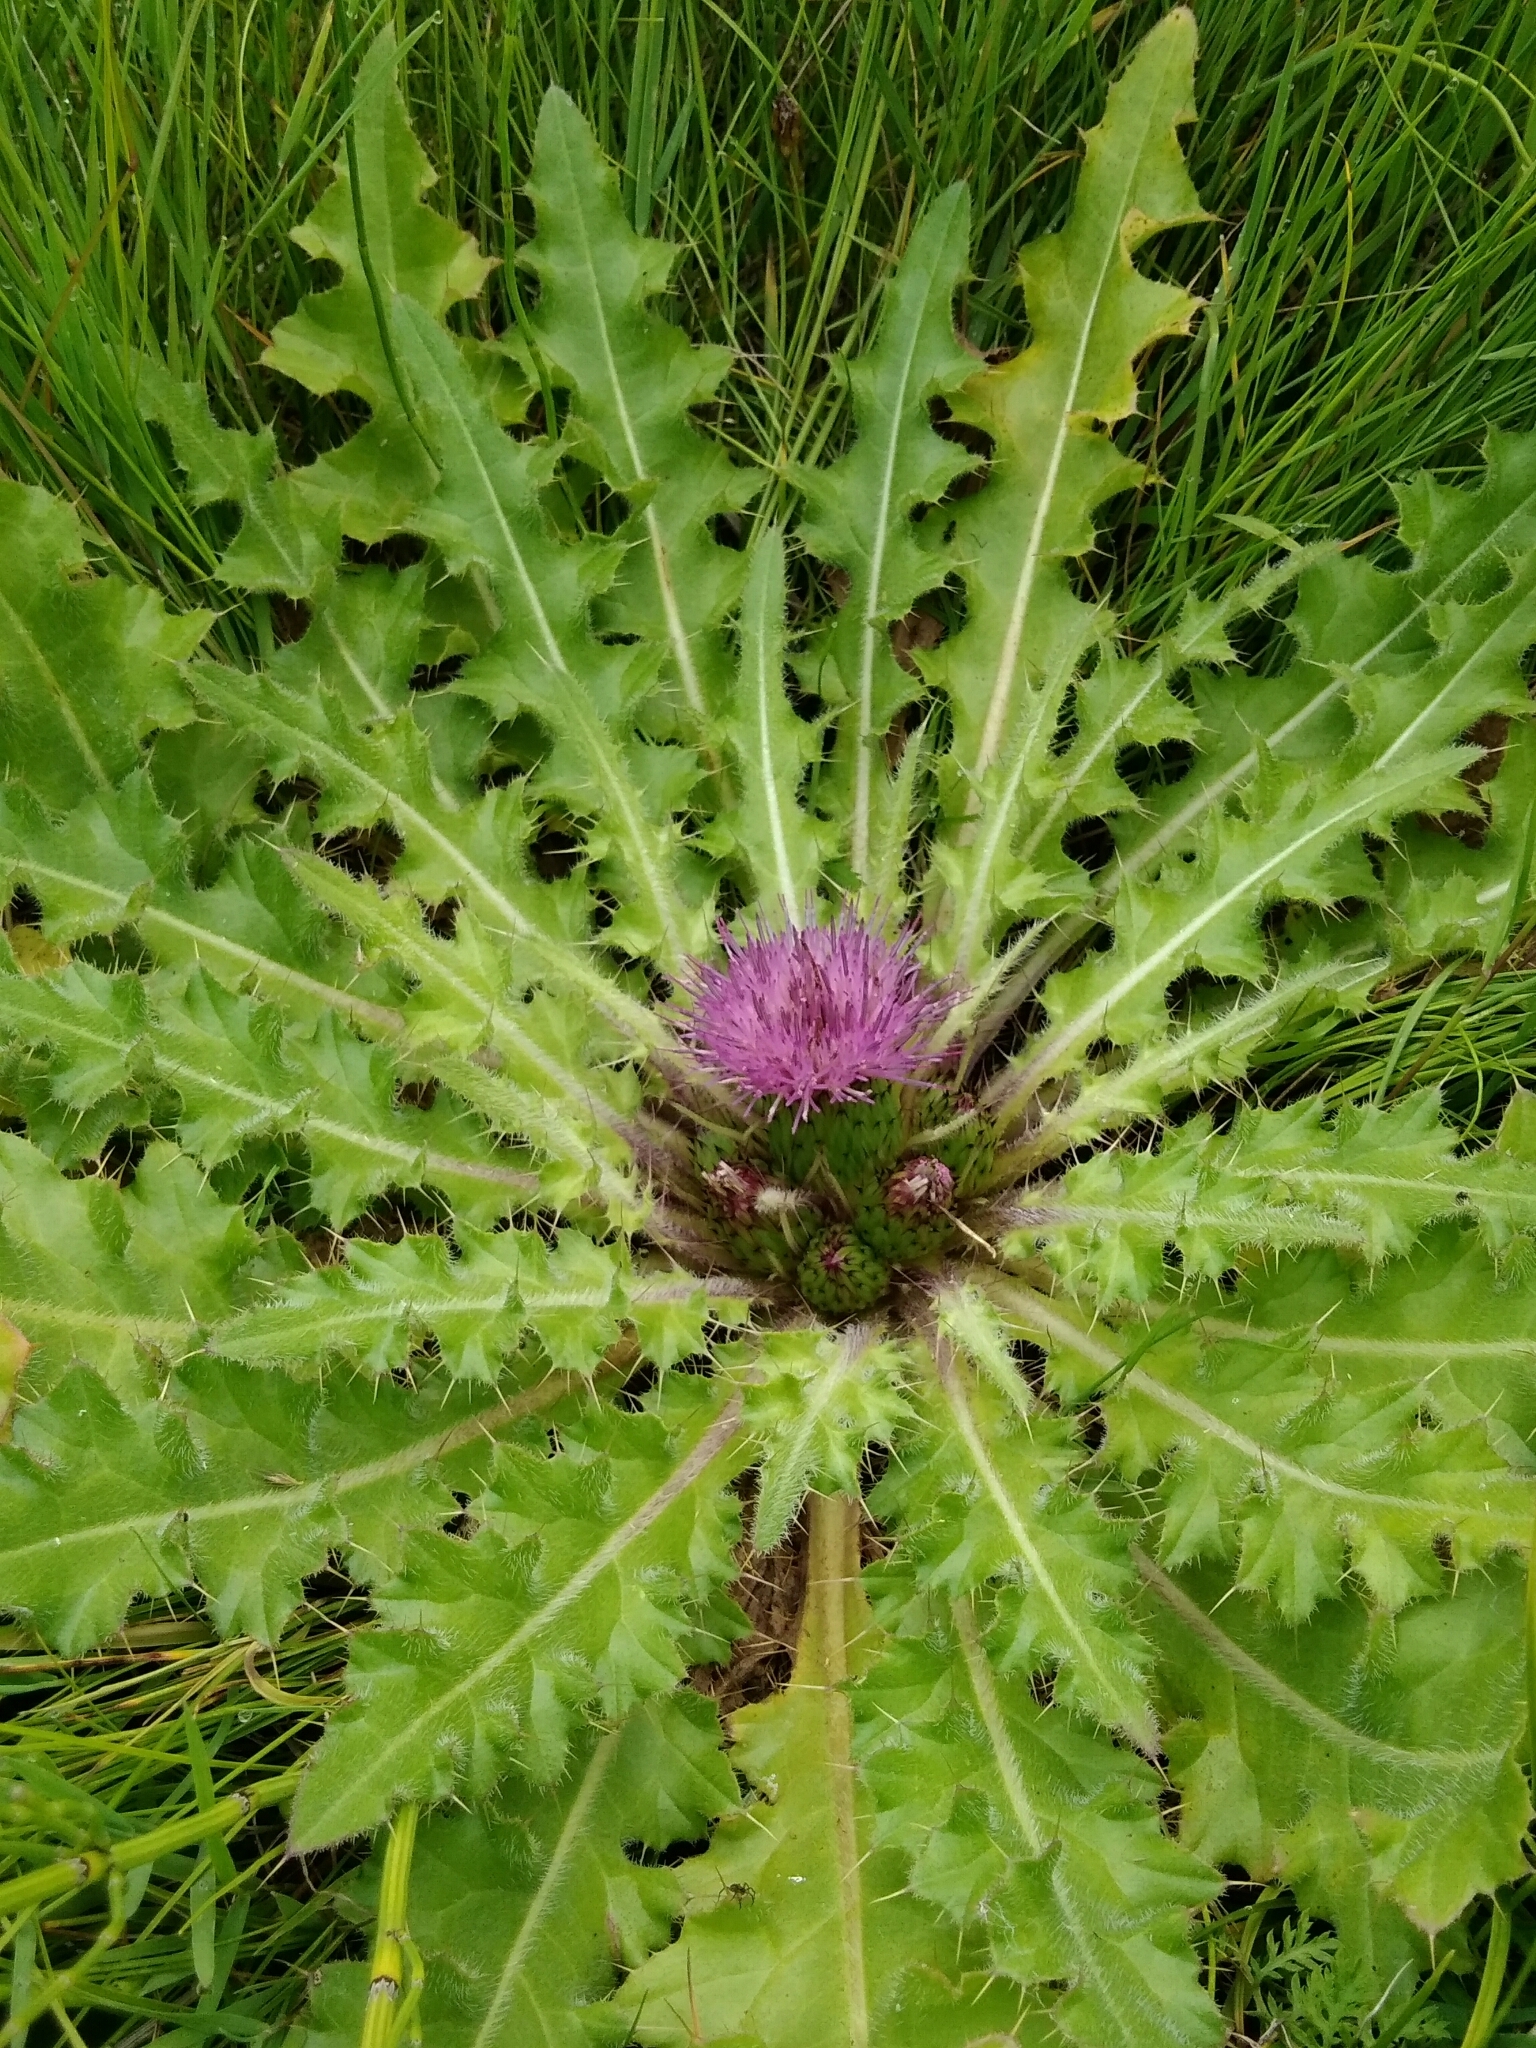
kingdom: Plantae
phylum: Tracheophyta
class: Magnoliopsida
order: Asterales
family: Asteraceae
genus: Cirsium
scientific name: Cirsium esculentum
